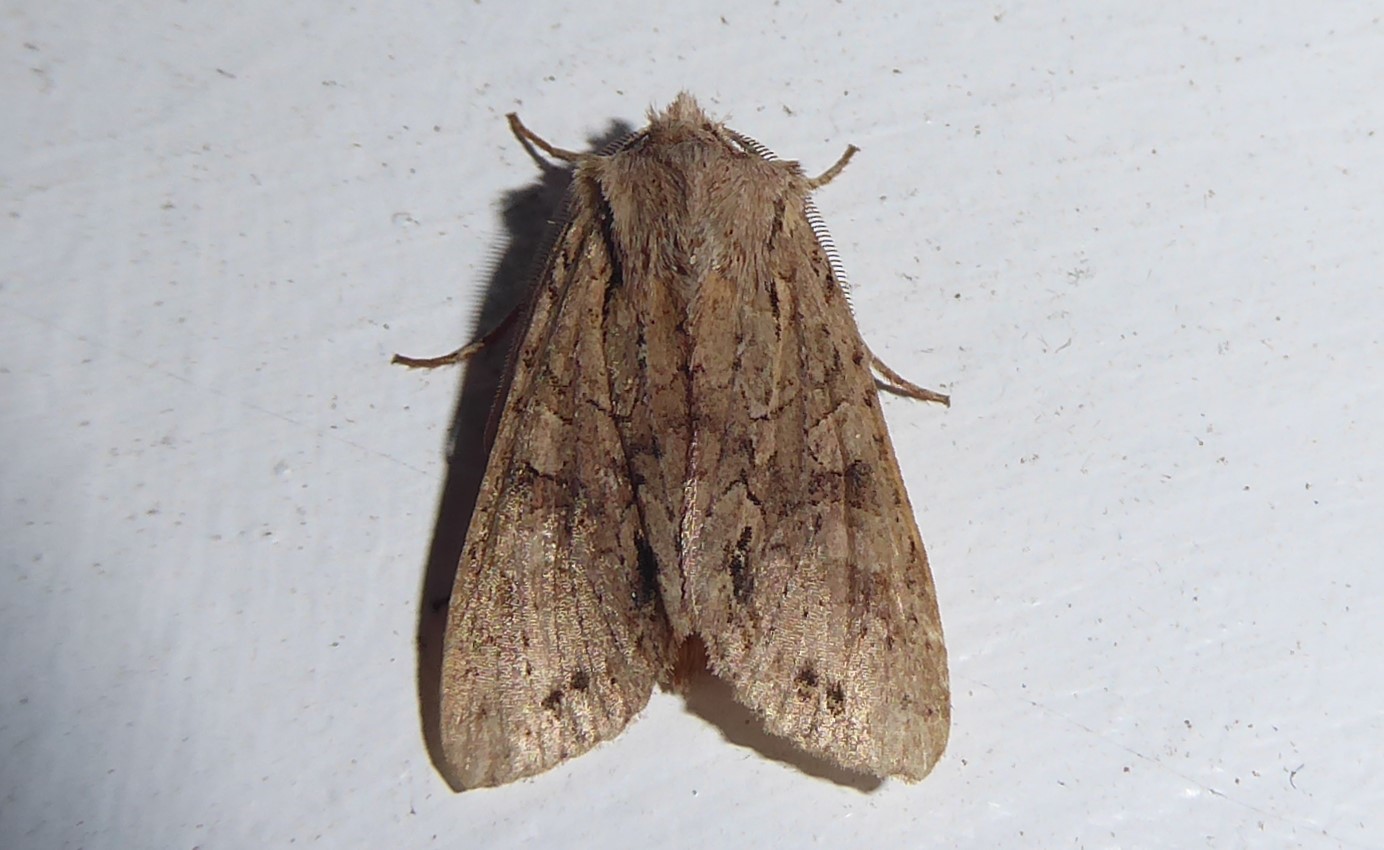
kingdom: Animalia
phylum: Arthropoda
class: Insecta
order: Lepidoptera
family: Noctuidae
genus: Ichneutica
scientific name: Ichneutica
